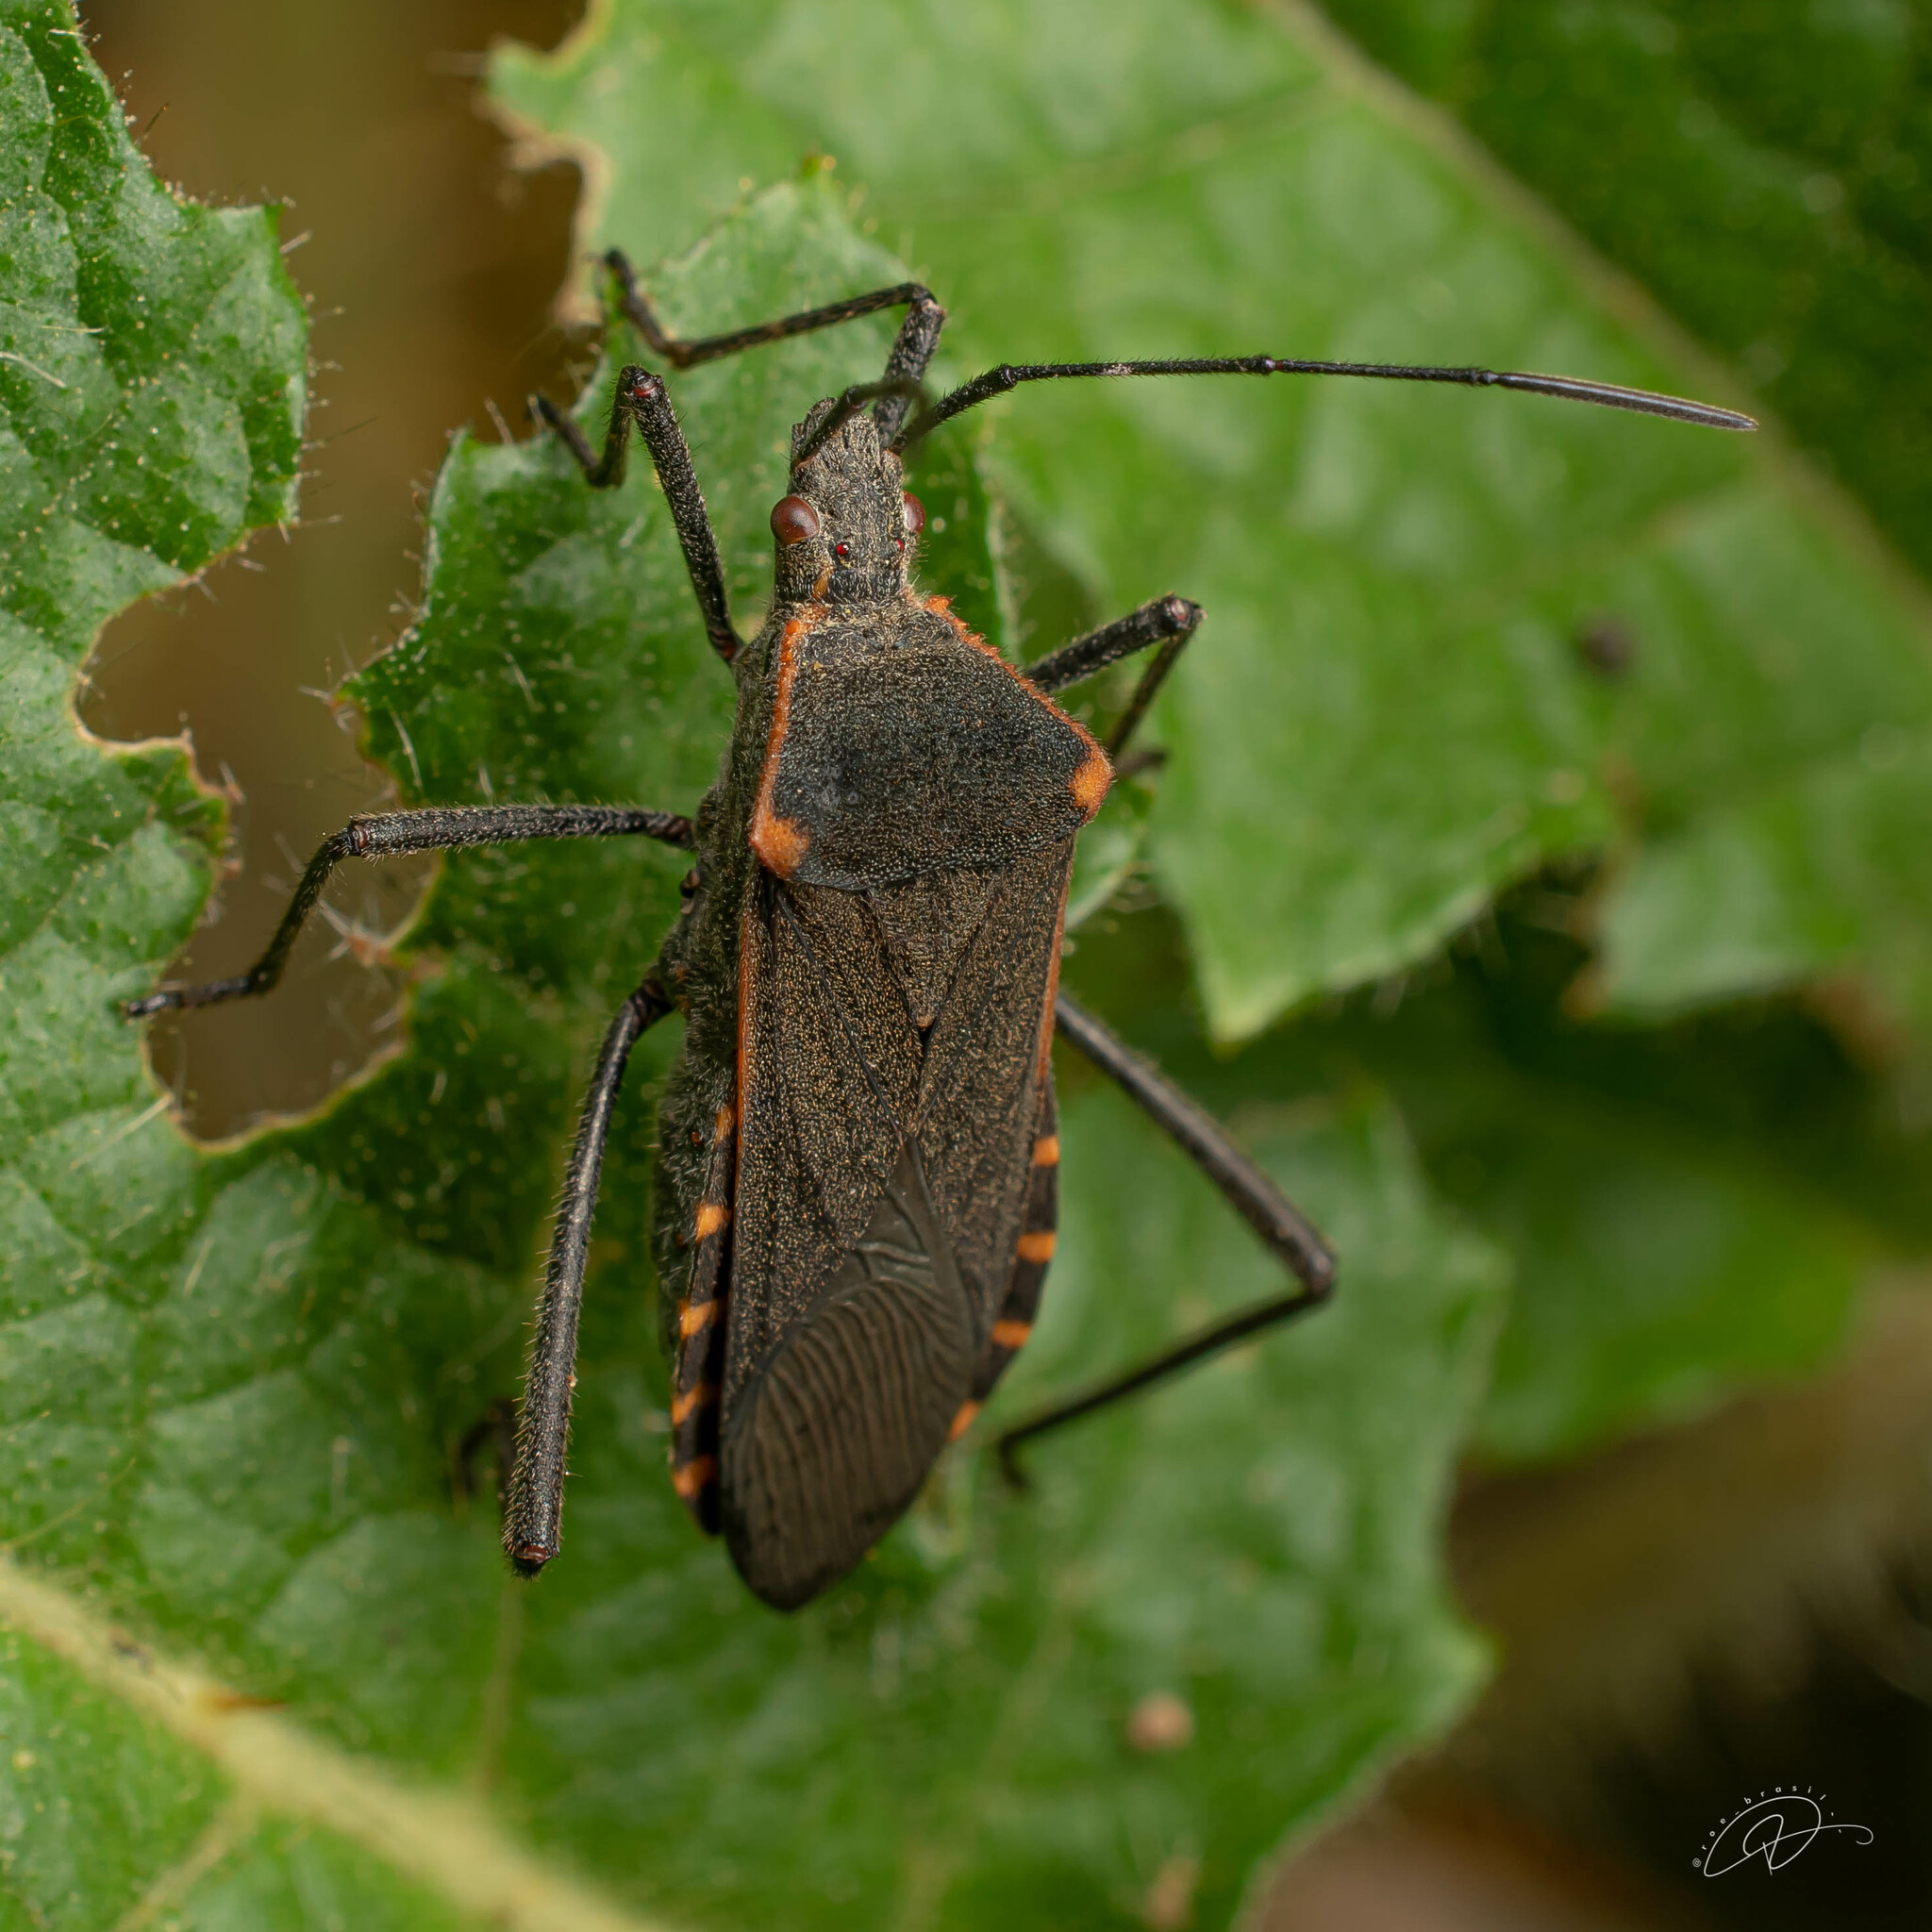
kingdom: Animalia
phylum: Arthropoda
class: Insecta
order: Hemiptera
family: Coreidae
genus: Phthiacnemia
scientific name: Phthiacnemia picta
